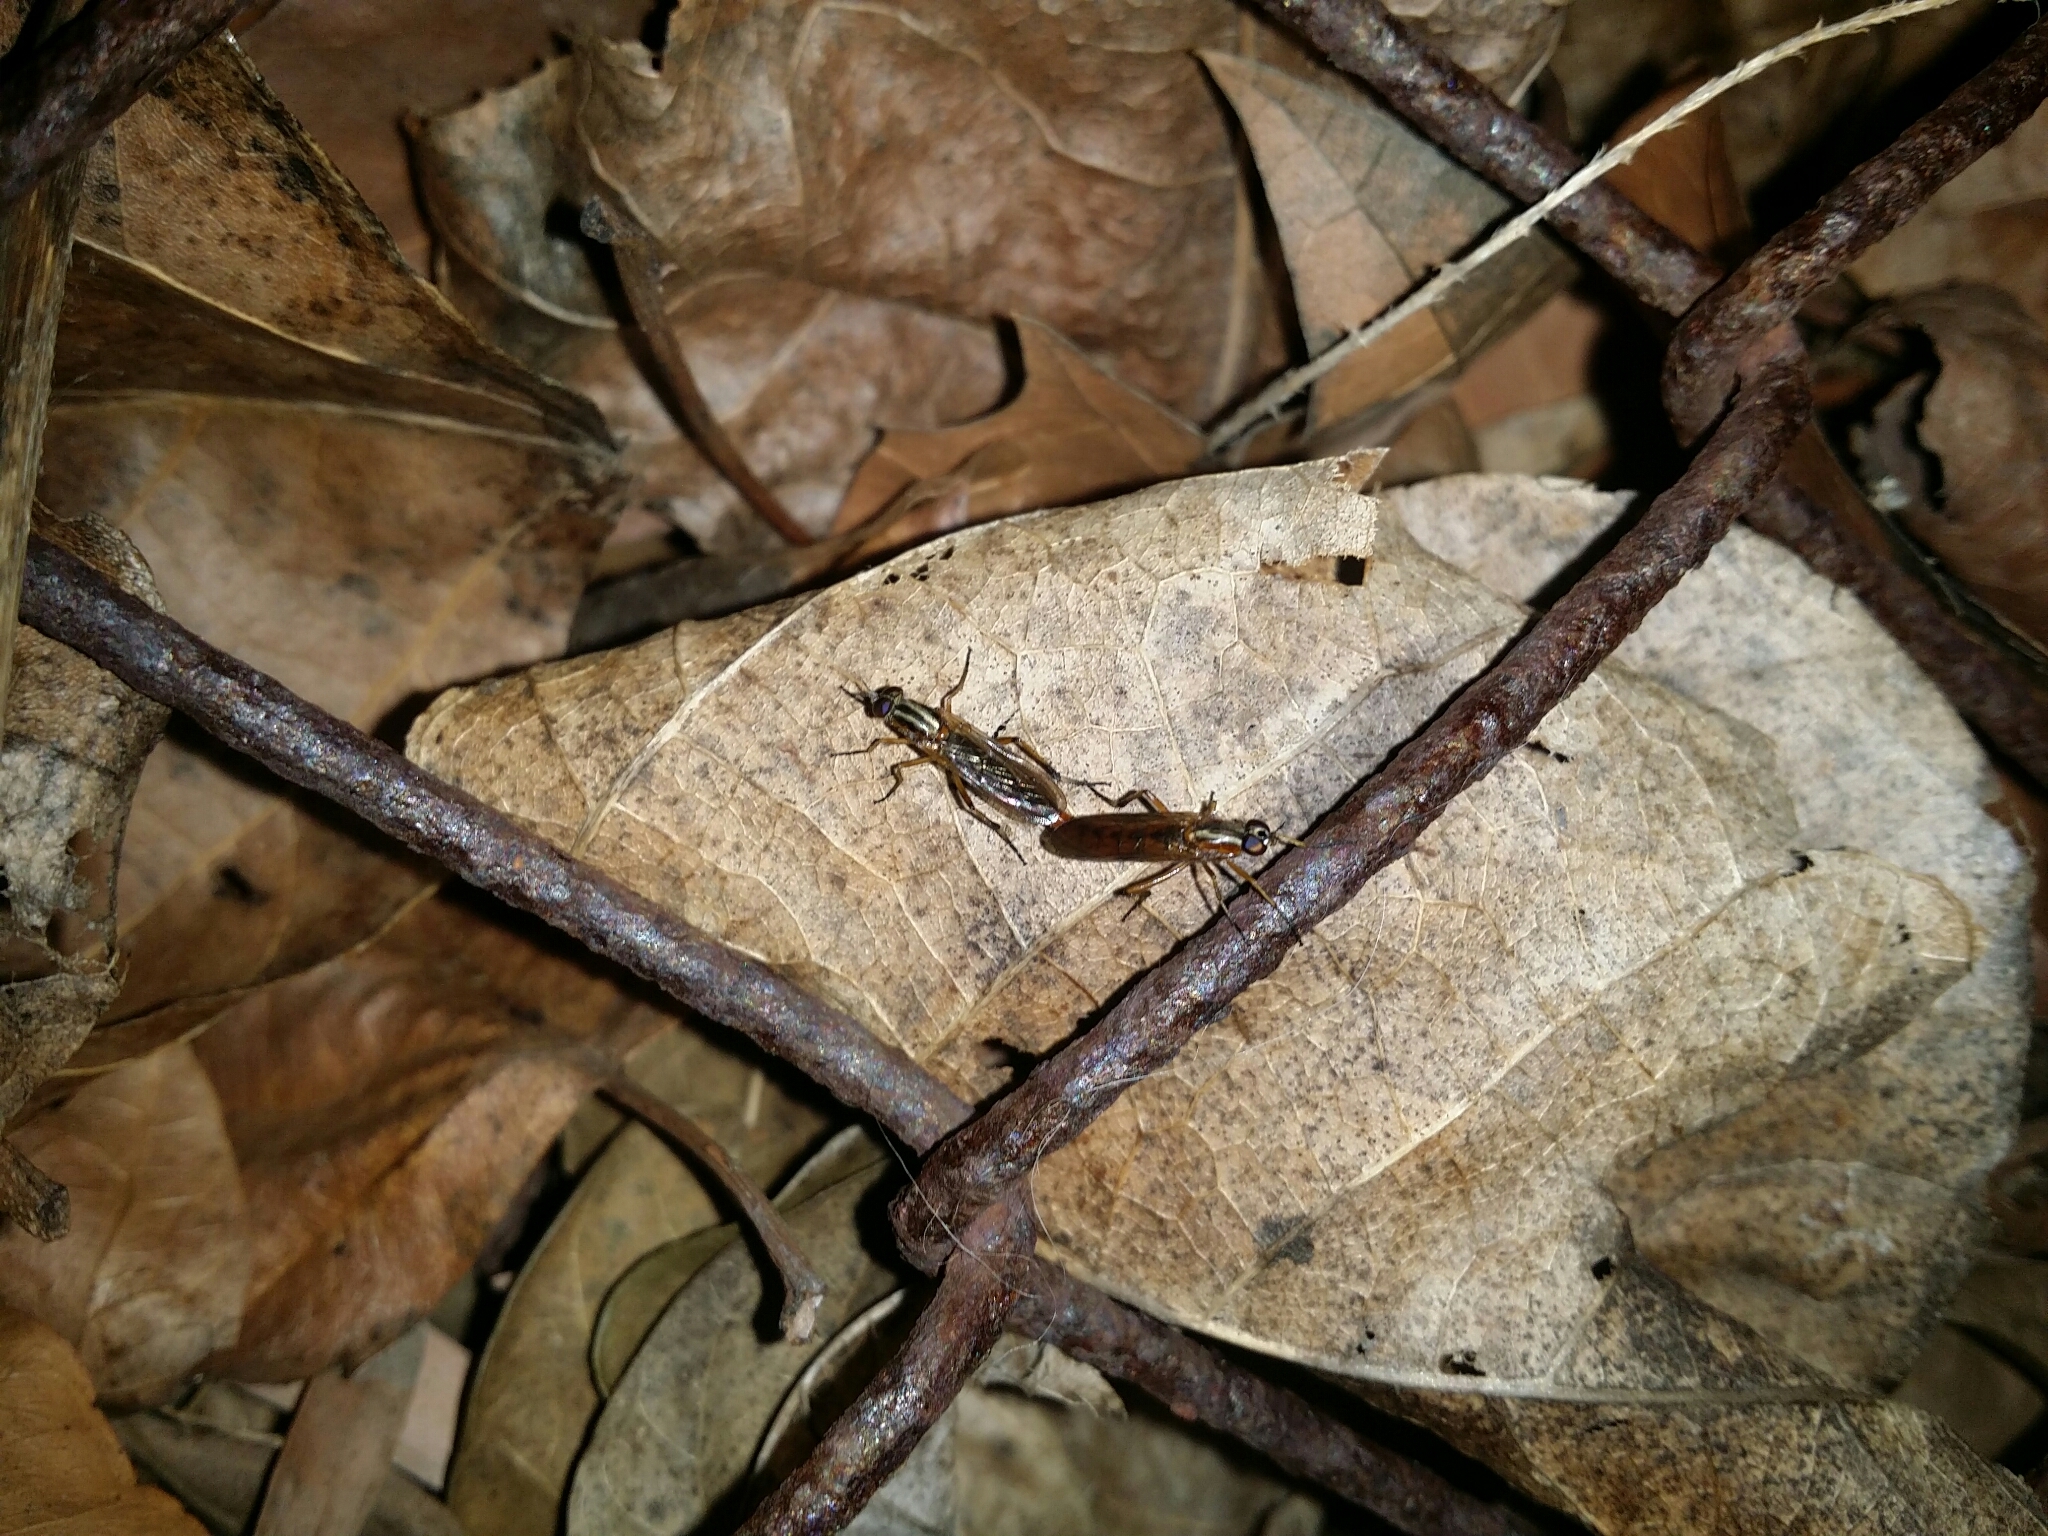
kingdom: Animalia
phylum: Arthropoda
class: Insecta
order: Diptera
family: Therevidae
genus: Ectinorhynchus
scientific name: Ectinorhynchus levis
